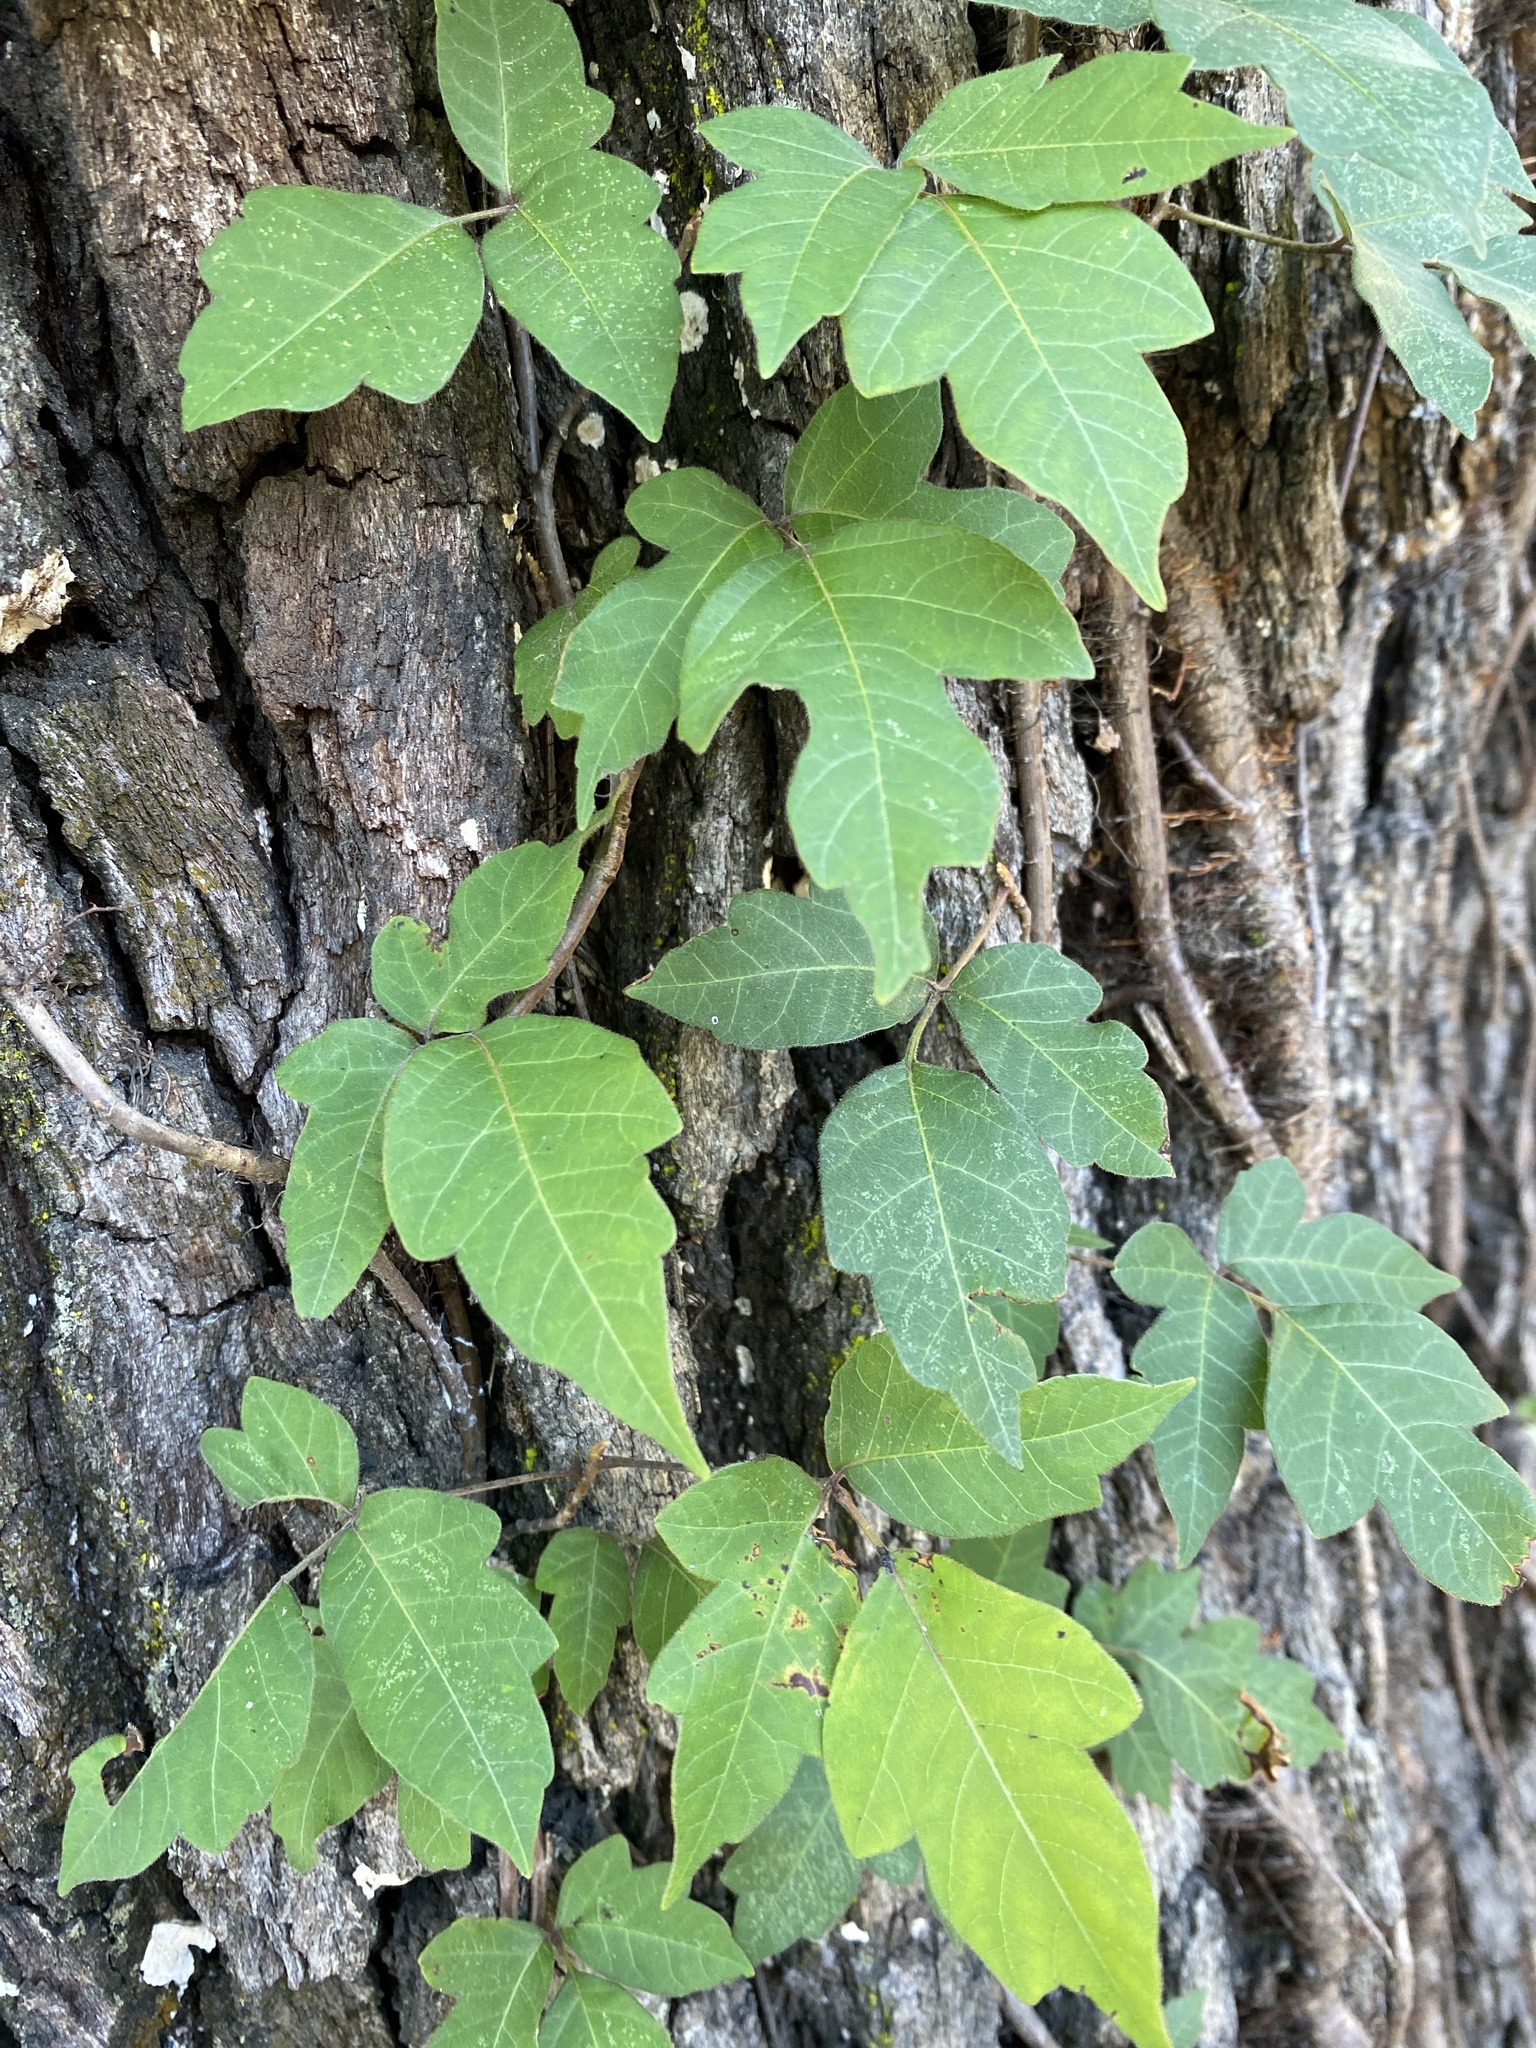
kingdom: Plantae
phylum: Tracheophyta
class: Magnoliopsida
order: Sapindales
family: Anacardiaceae
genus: Toxicodendron
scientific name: Toxicodendron radicans
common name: Poison ivy
